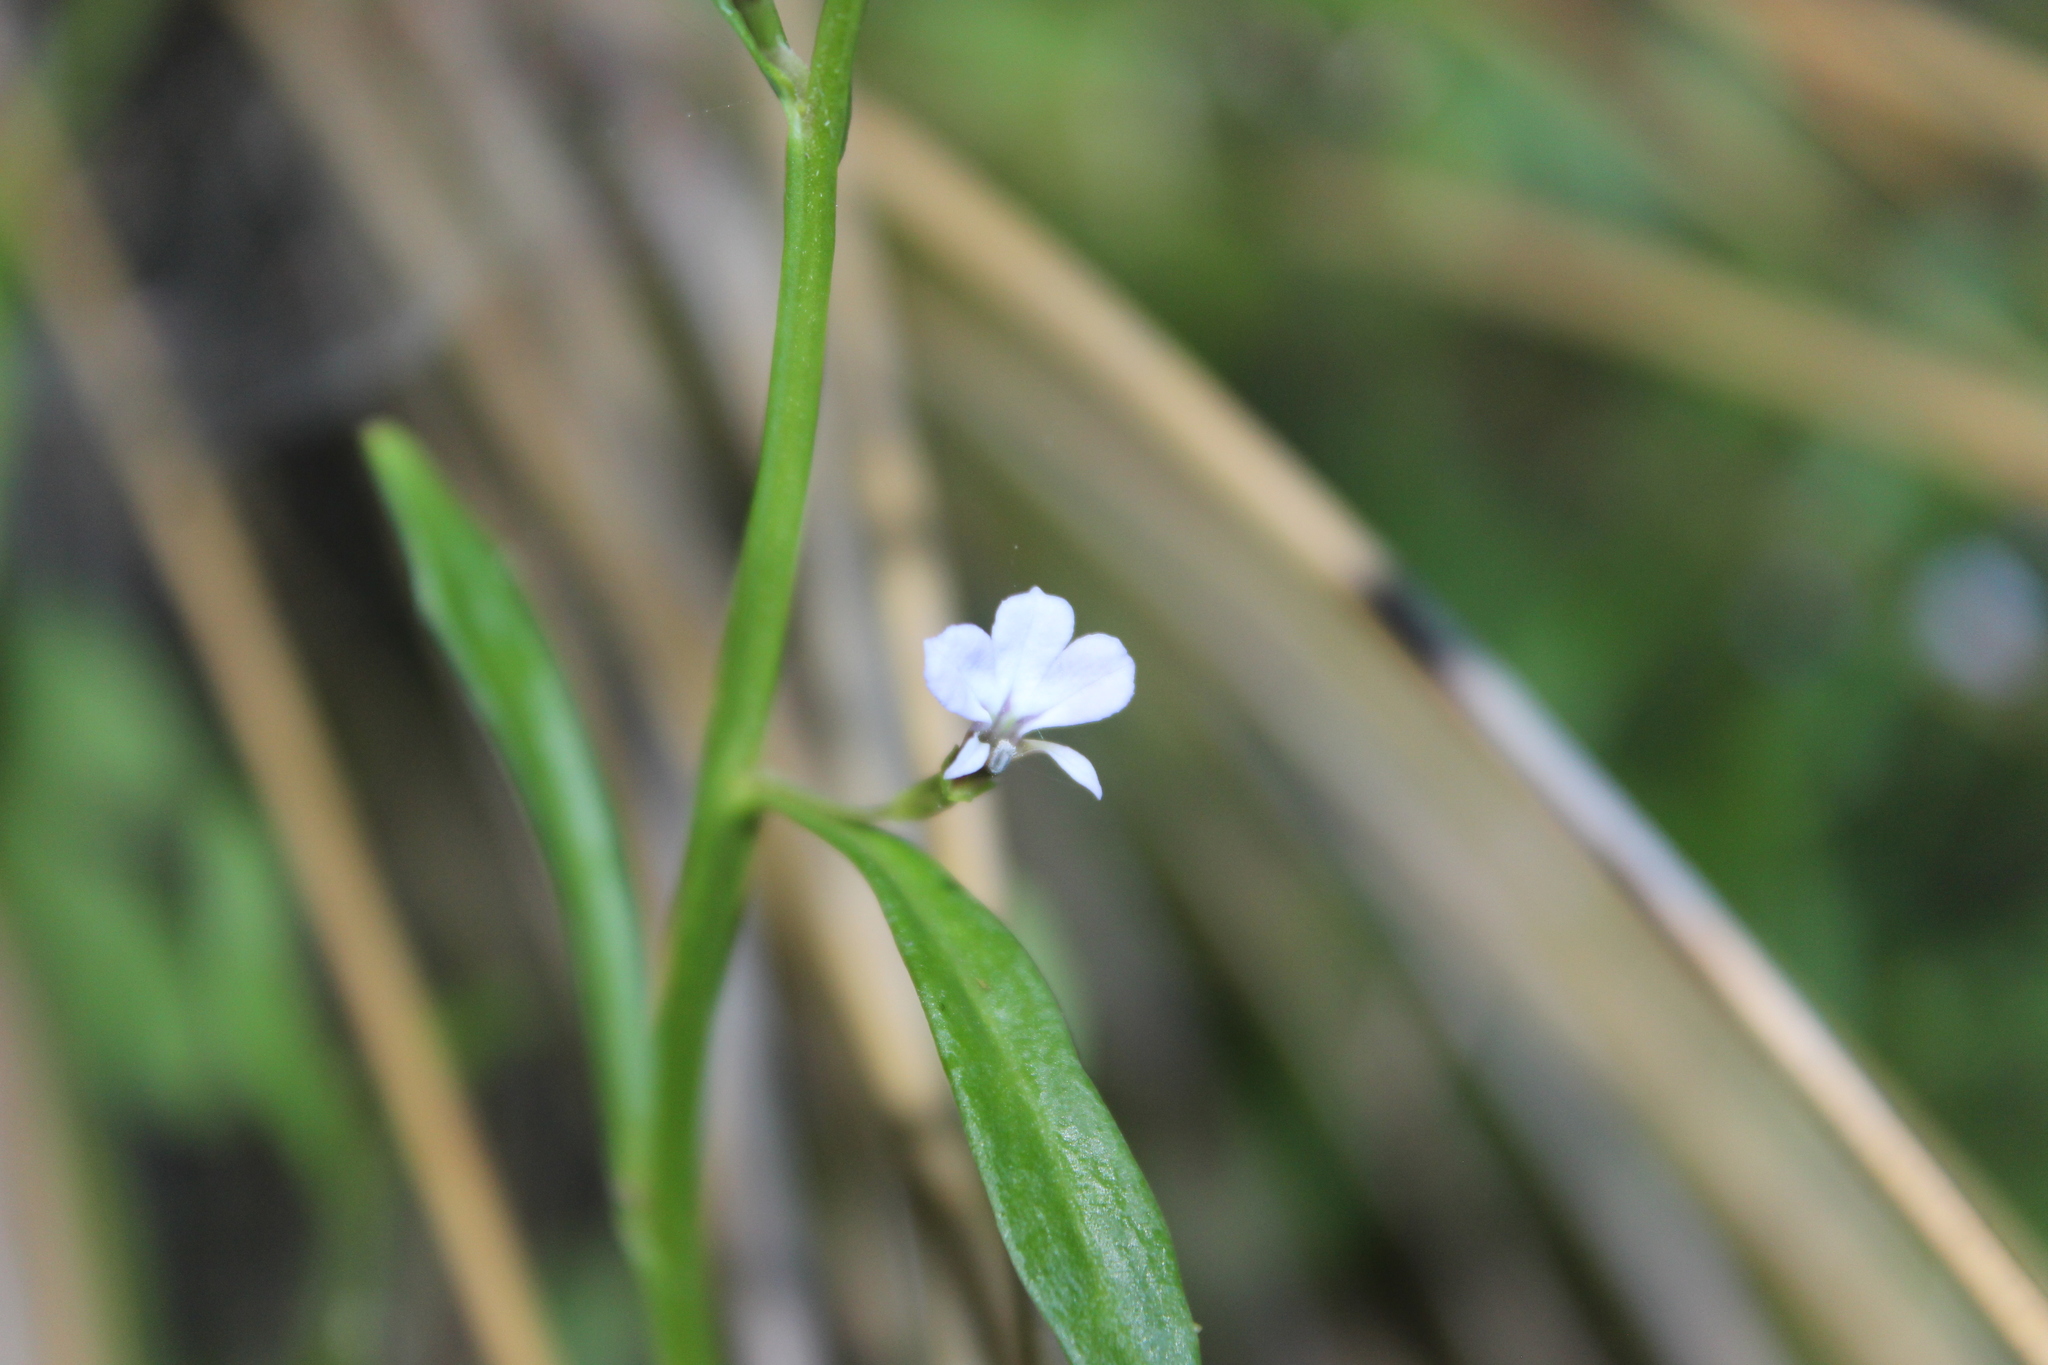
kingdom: Plantae
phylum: Tracheophyta
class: Magnoliopsida
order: Asterales
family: Campanulaceae
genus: Lobelia
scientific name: Lobelia anceps
